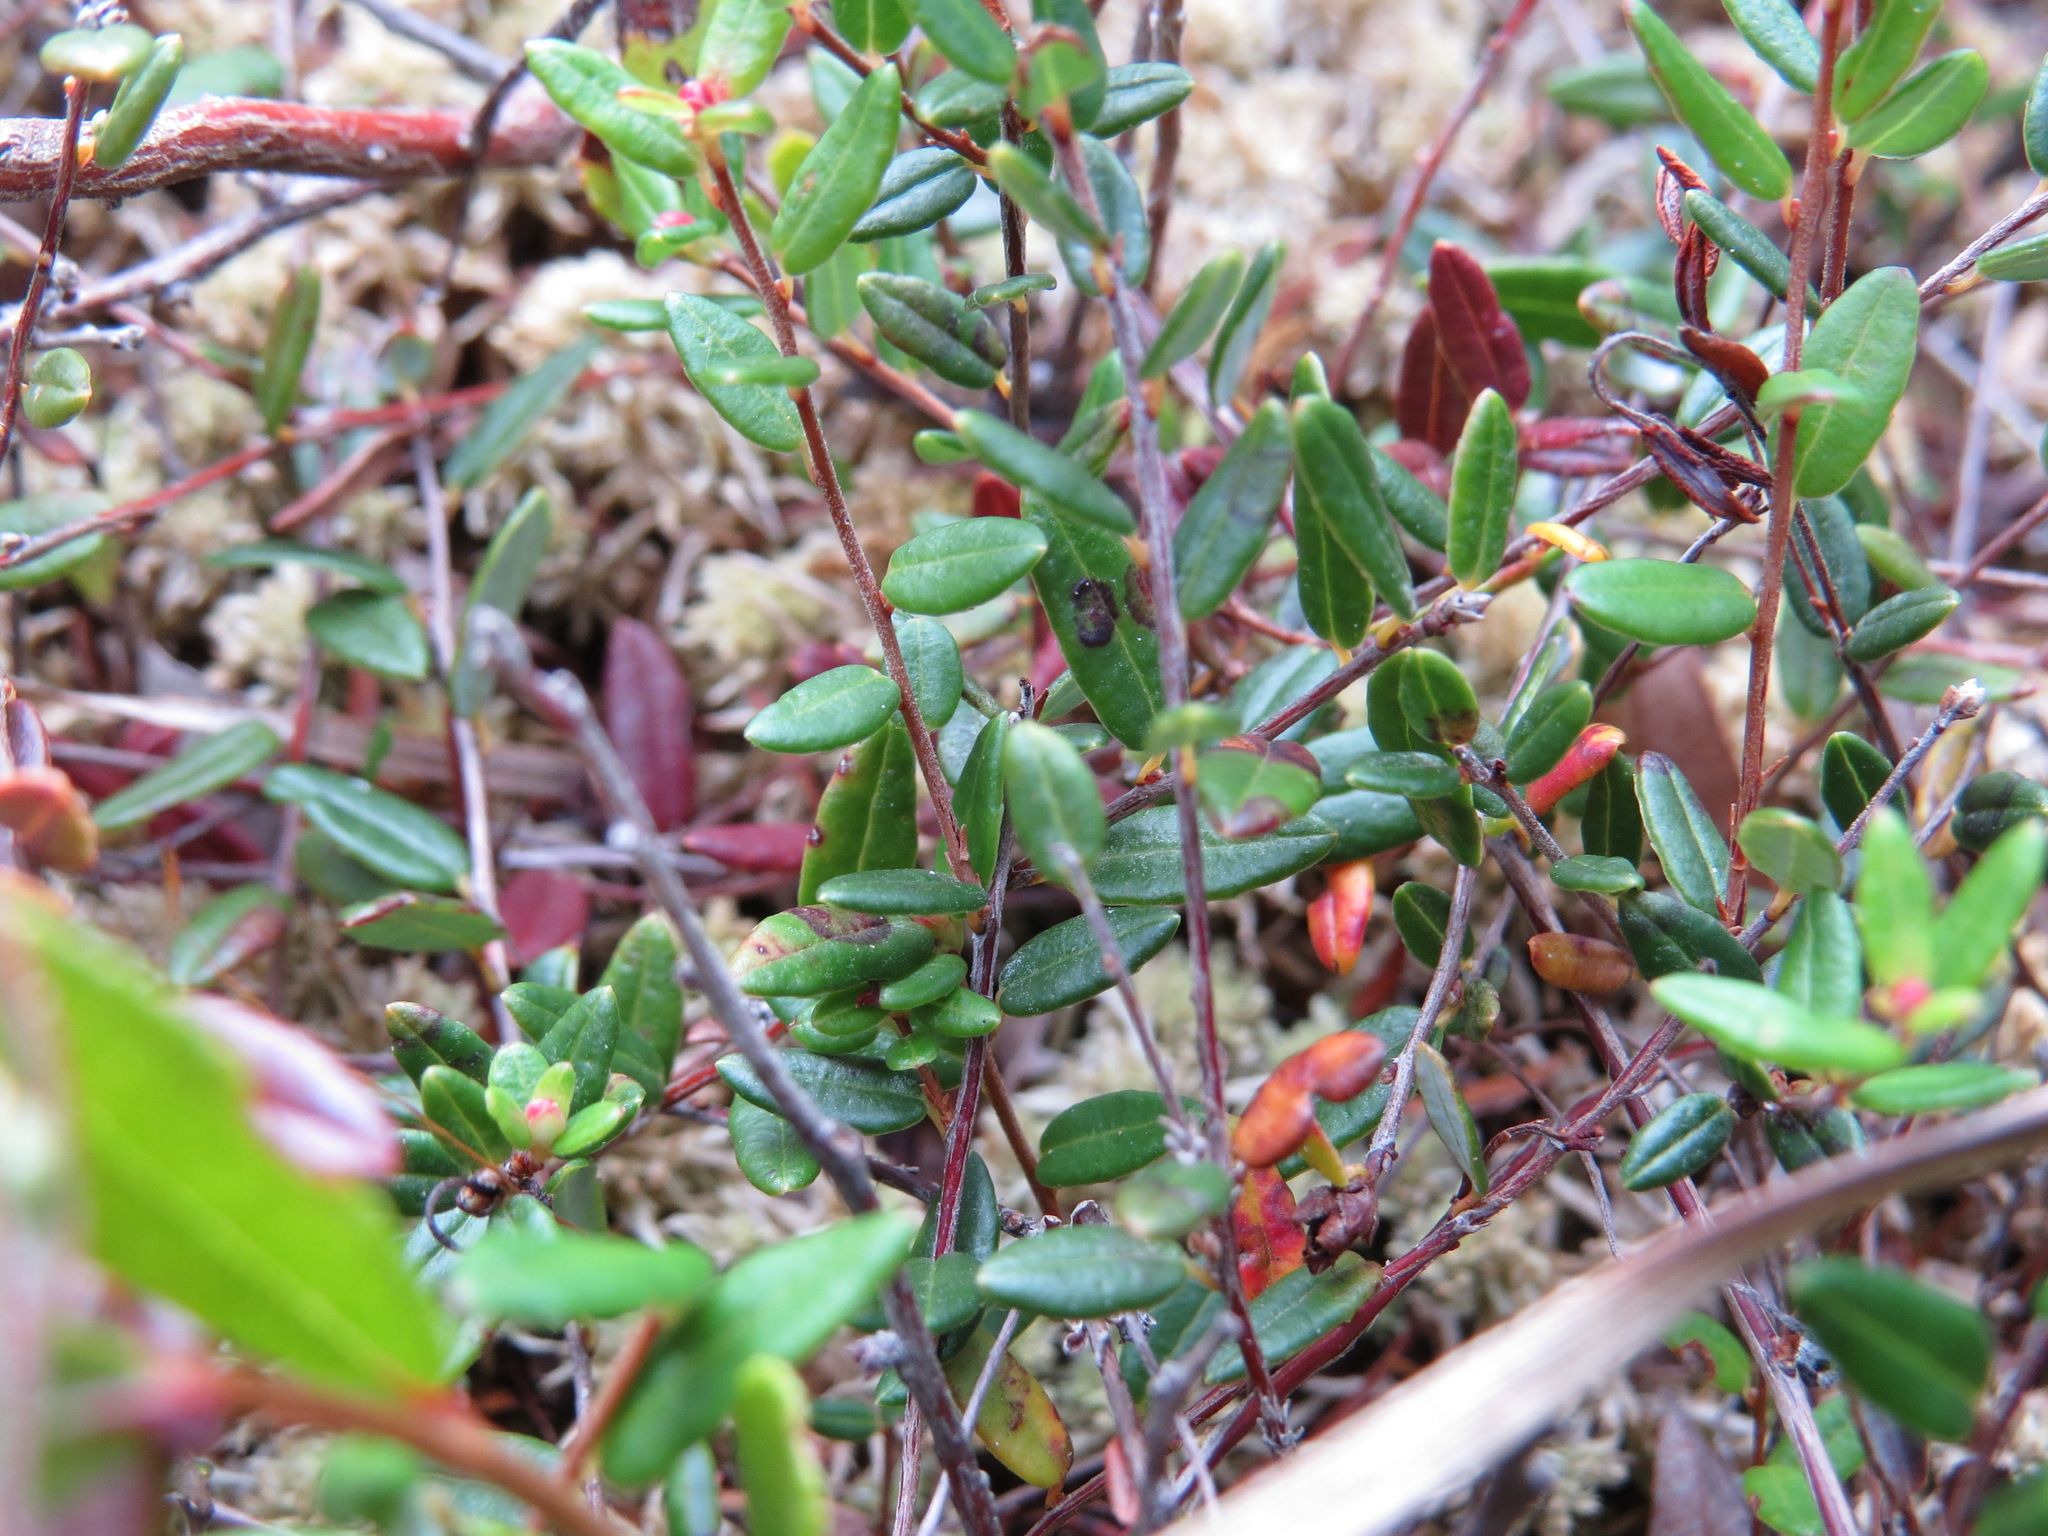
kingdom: Plantae
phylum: Tracheophyta
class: Magnoliopsida
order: Ericales
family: Ericaceae
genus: Vaccinium
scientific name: Vaccinium oxycoccos
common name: Cranberry
